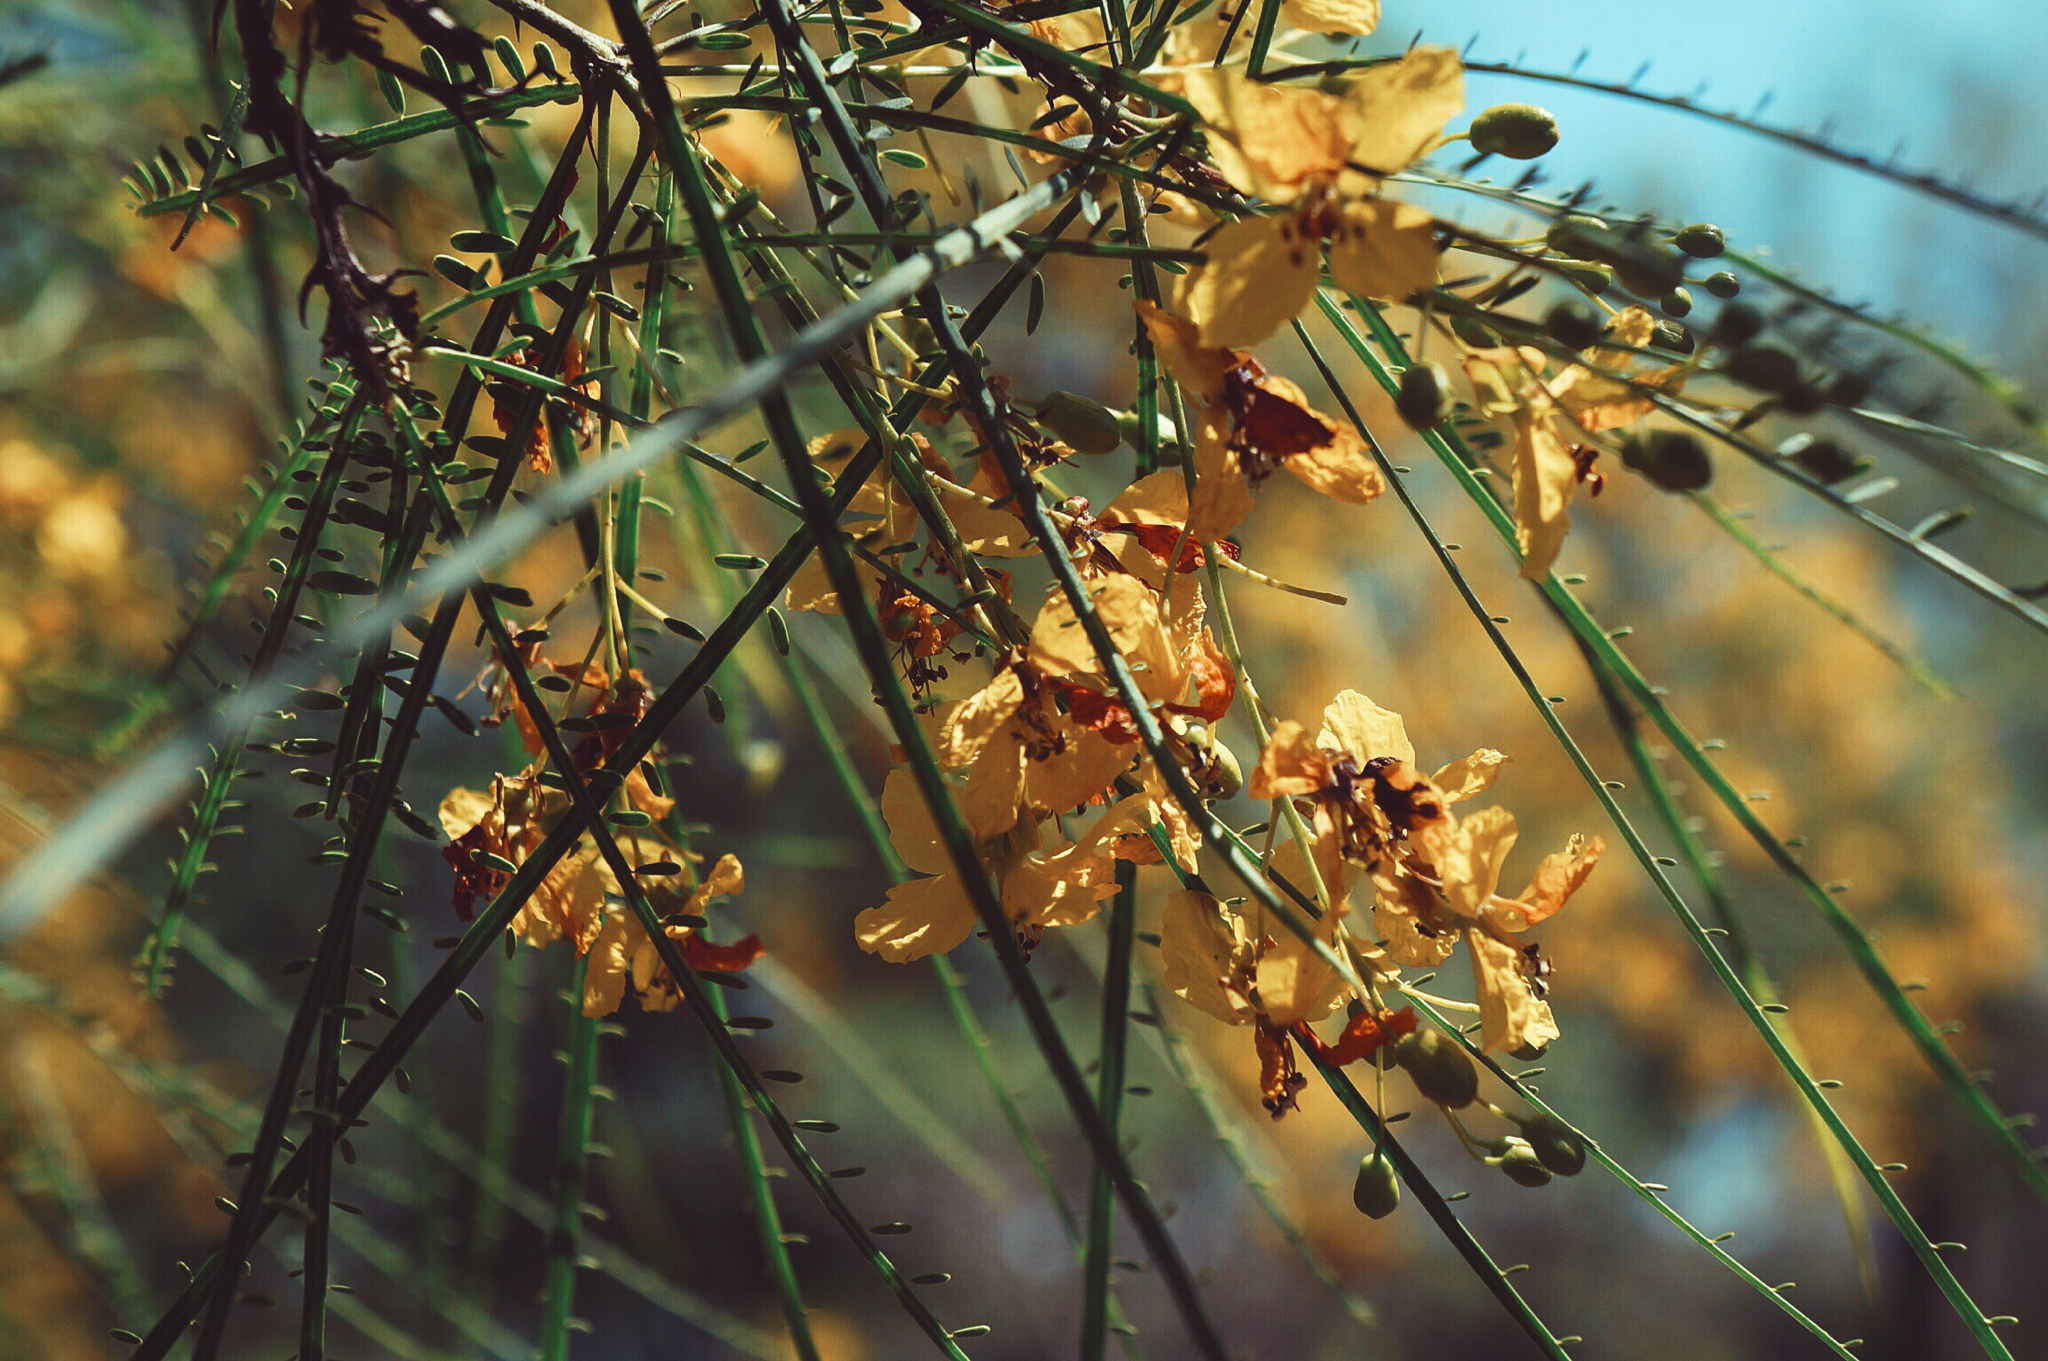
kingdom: Plantae
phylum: Tracheophyta
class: Magnoliopsida
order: Fabales
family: Fabaceae
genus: Parkinsonia
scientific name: Parkinsonia aculeata
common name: Jerusalem thorn
